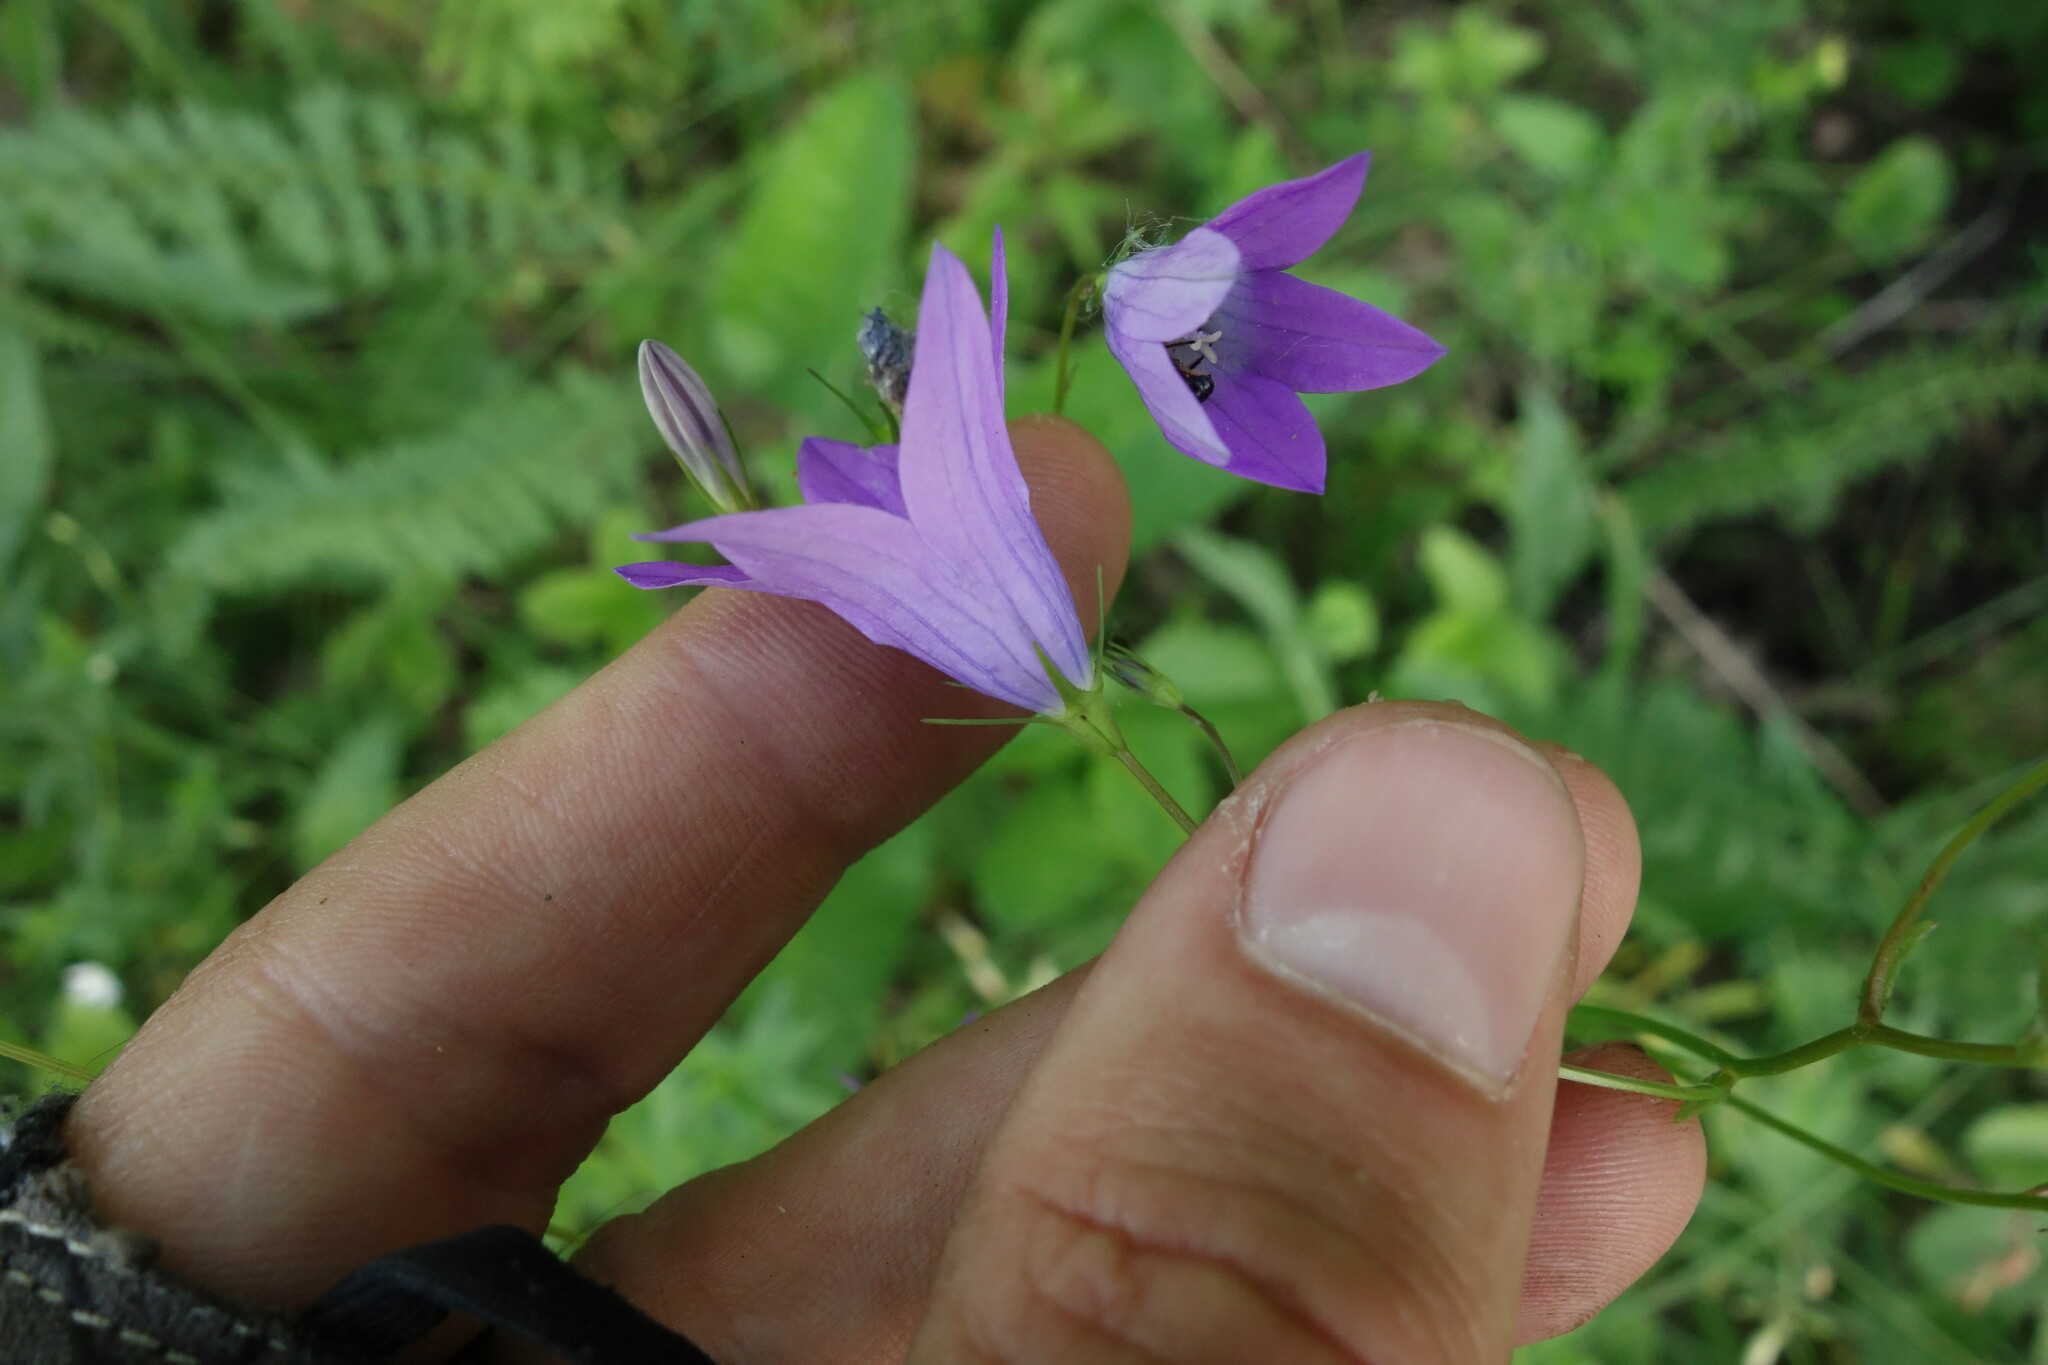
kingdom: Plantae
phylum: Tracheophyta
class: Magnoliopsida
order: Asterales
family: Campanulaceae
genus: Campanula
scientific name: Campanula patula
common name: Spreading bellflower
